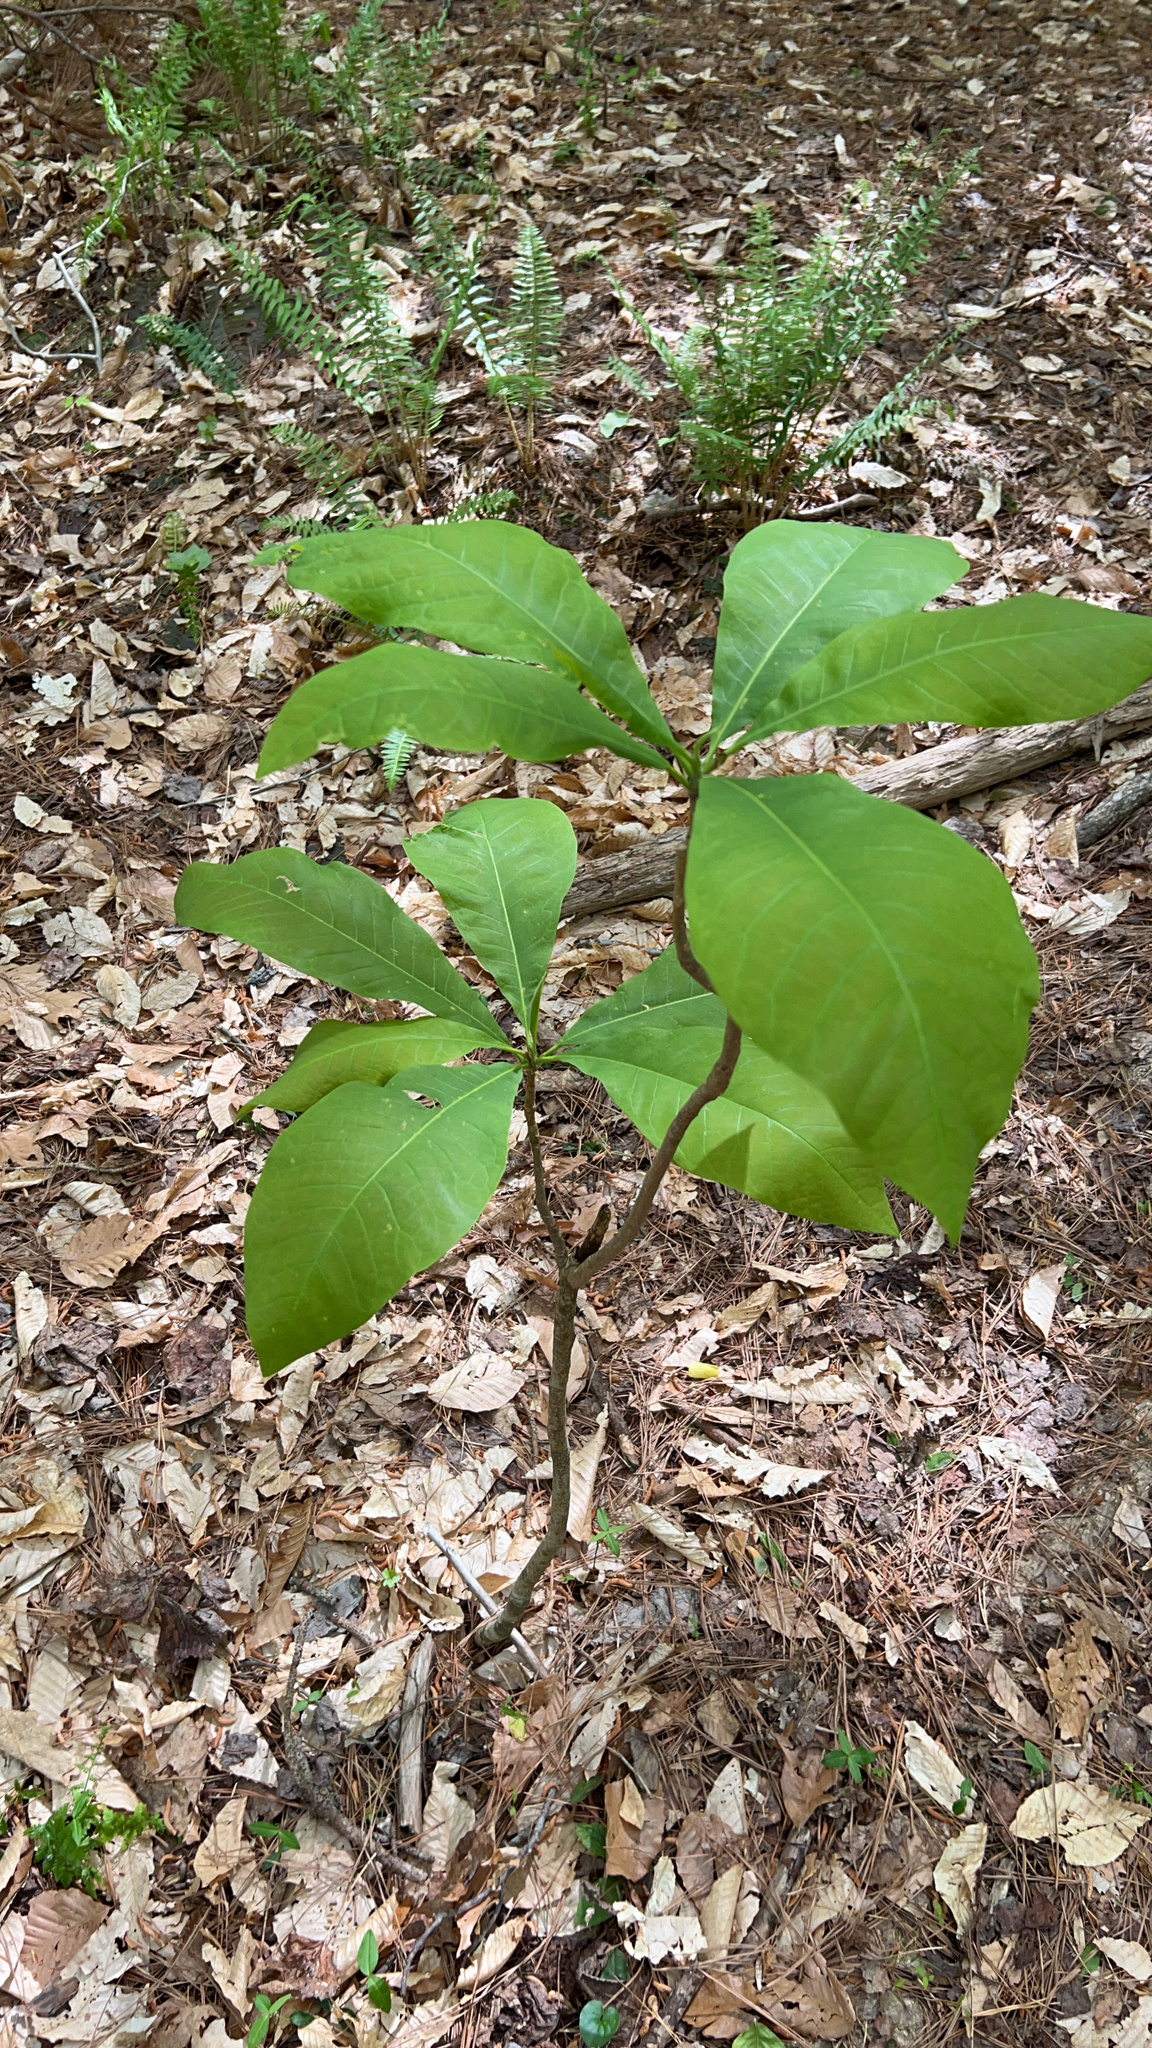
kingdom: Plantae
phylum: Tracheophyta
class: Magnoliopsida
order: Magnoliales
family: Magnoliaceae
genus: Magnolia
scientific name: Magnolia tripetala
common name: Umbrella magnolia
